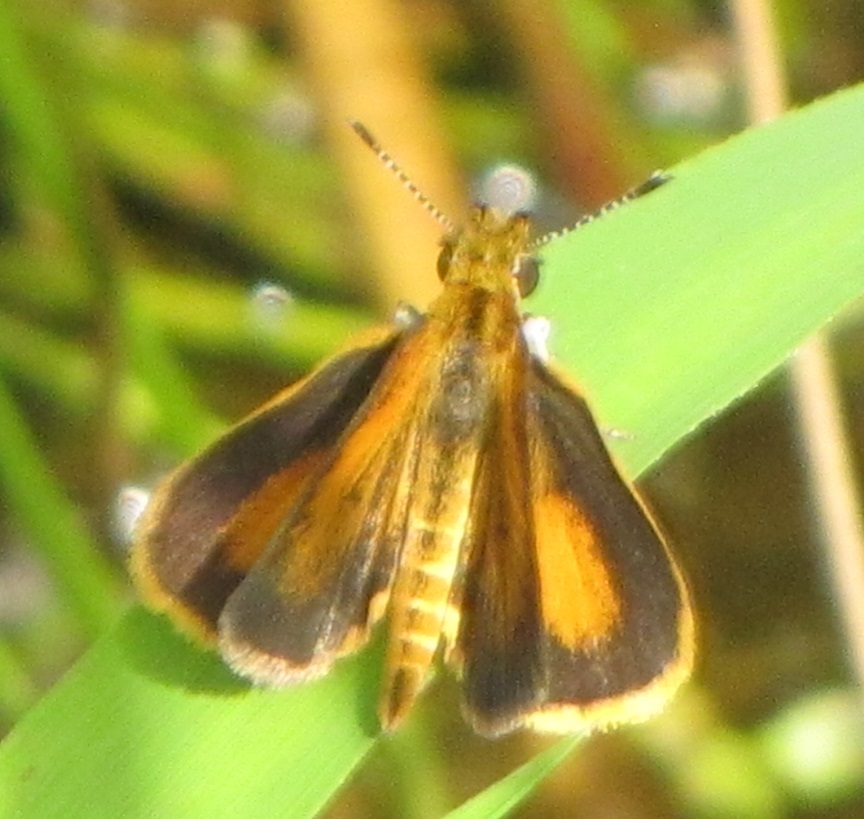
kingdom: Animalia
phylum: Arthropoda
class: Insecta
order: Lepidoptera
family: Hesperiidae
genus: Ancyloxypha
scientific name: Ancyloxypha numitor
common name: Least skipper
